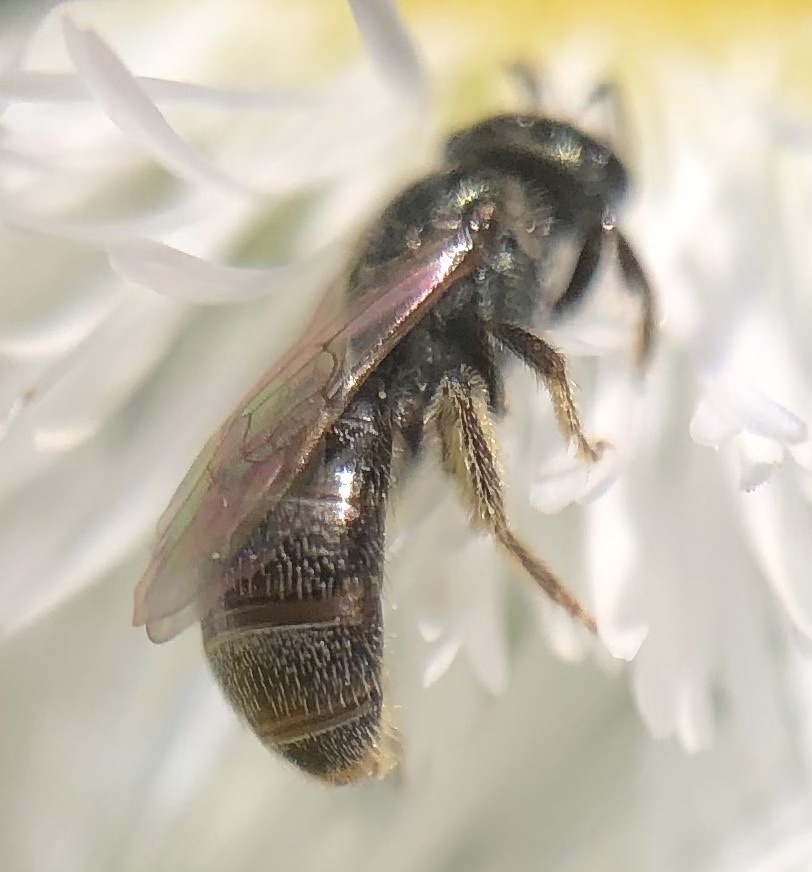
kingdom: Animalia
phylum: Arthropoda
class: Insecta
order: Hymenoptera
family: Halictidae
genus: Lasioglossum
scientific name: Lasioglossum imitatum
